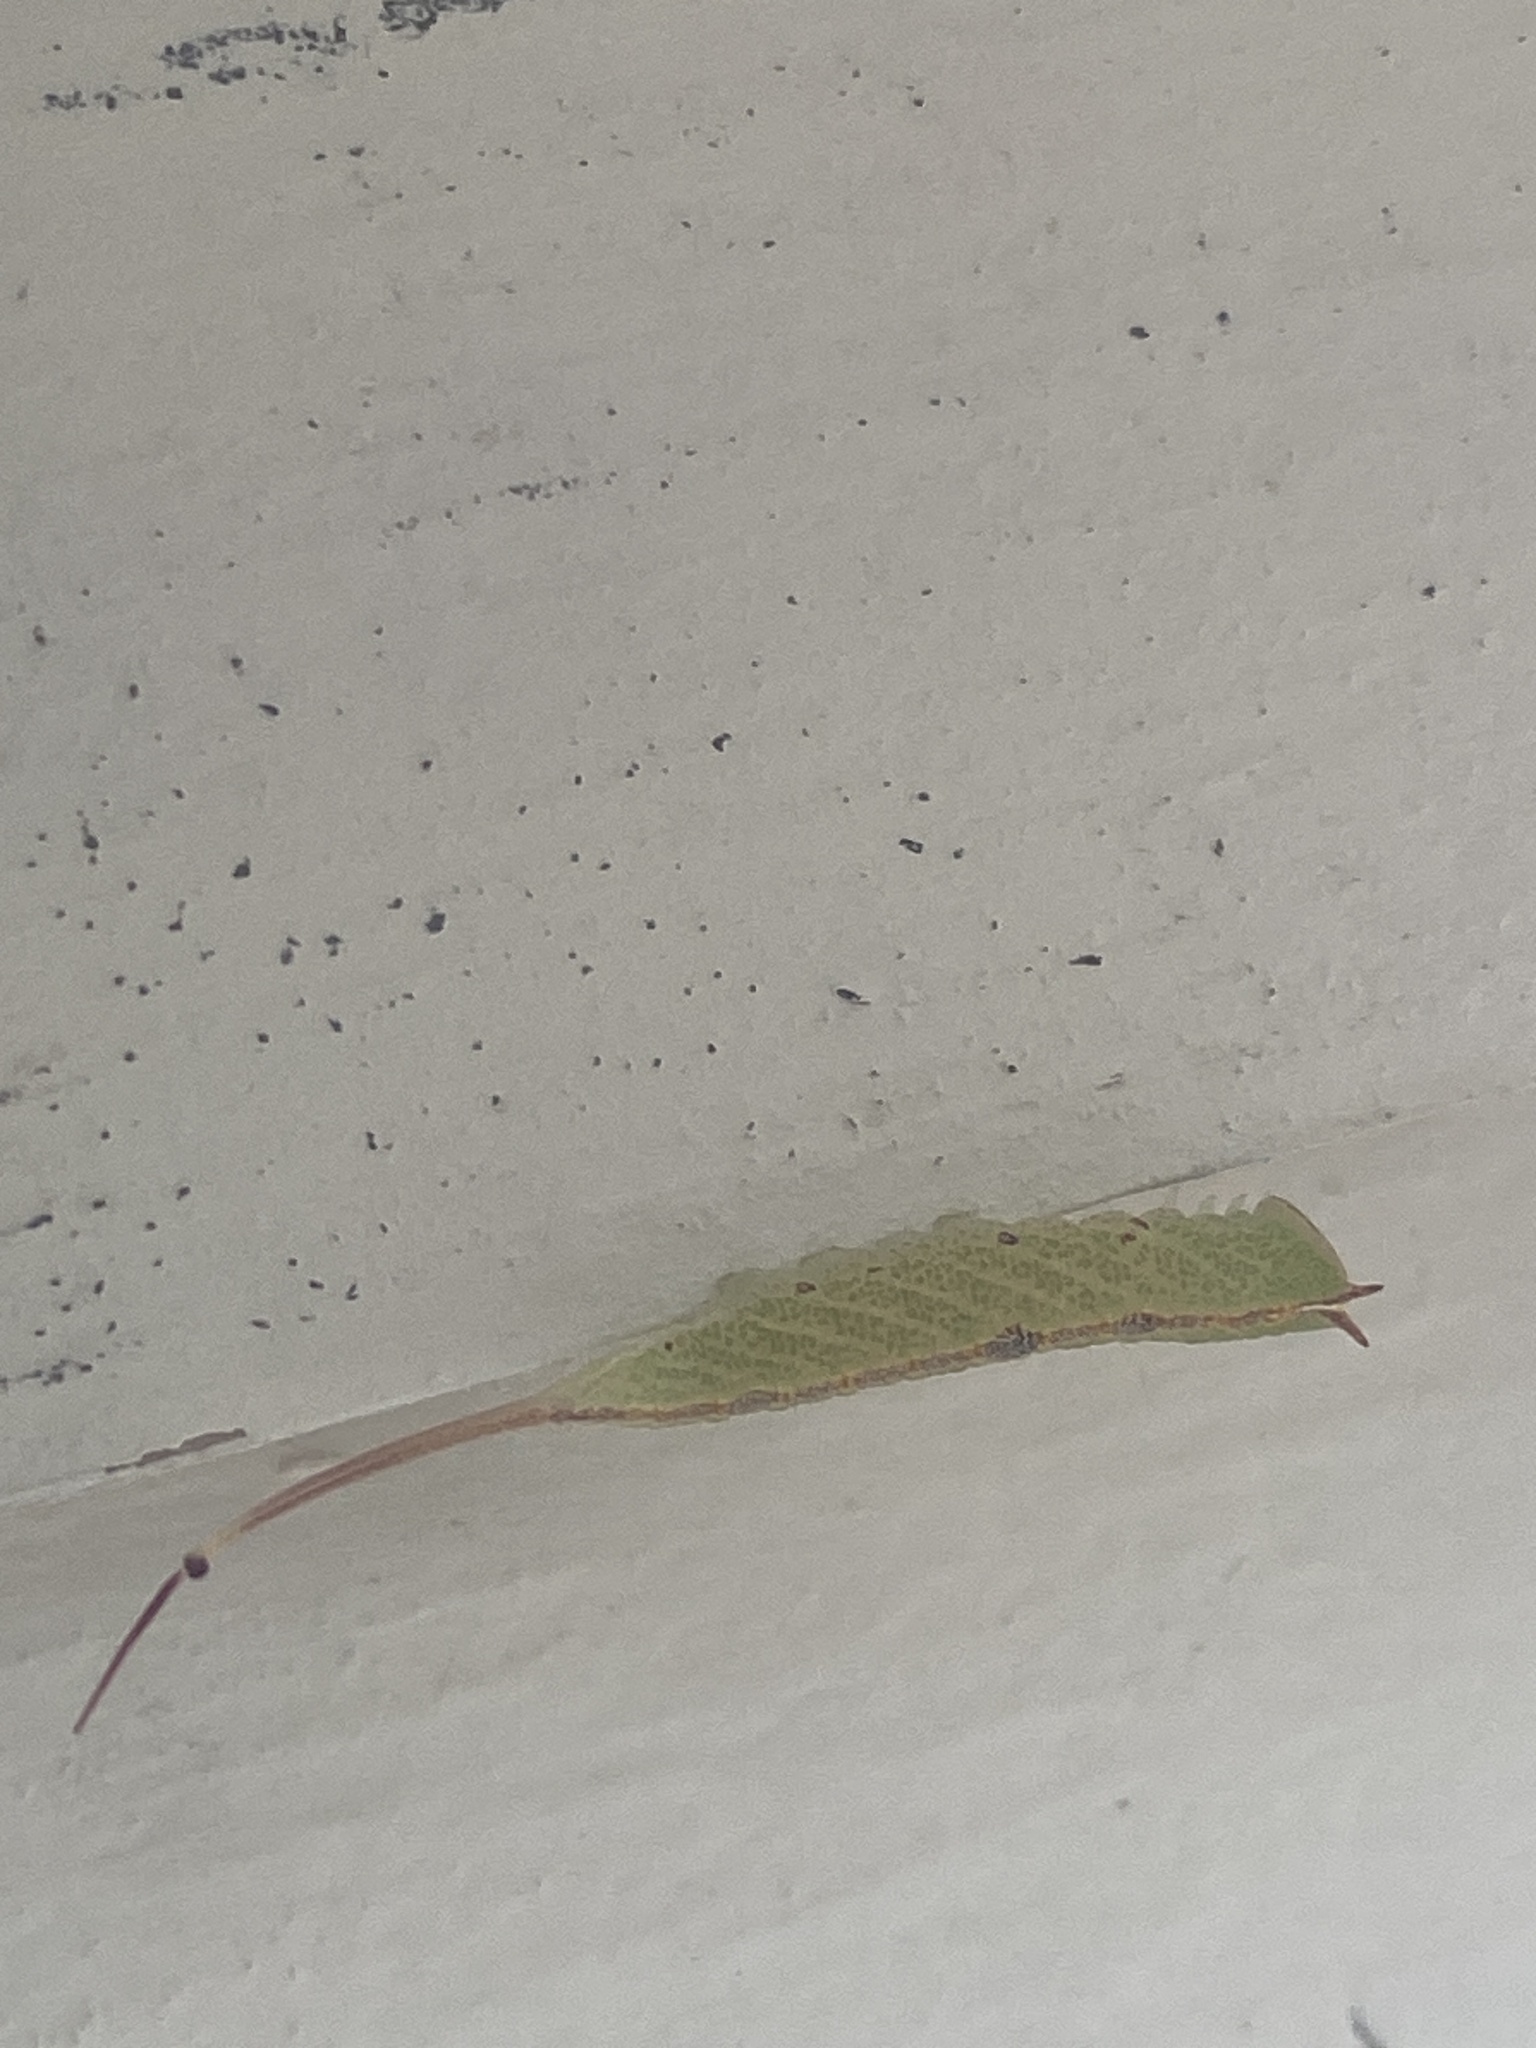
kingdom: Animalia
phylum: Arthropoda
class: Insecta
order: Lepidoptera
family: Notodontidae
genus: Macrurocampa
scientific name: Macrurocampa marthesia
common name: Mottled prominent
